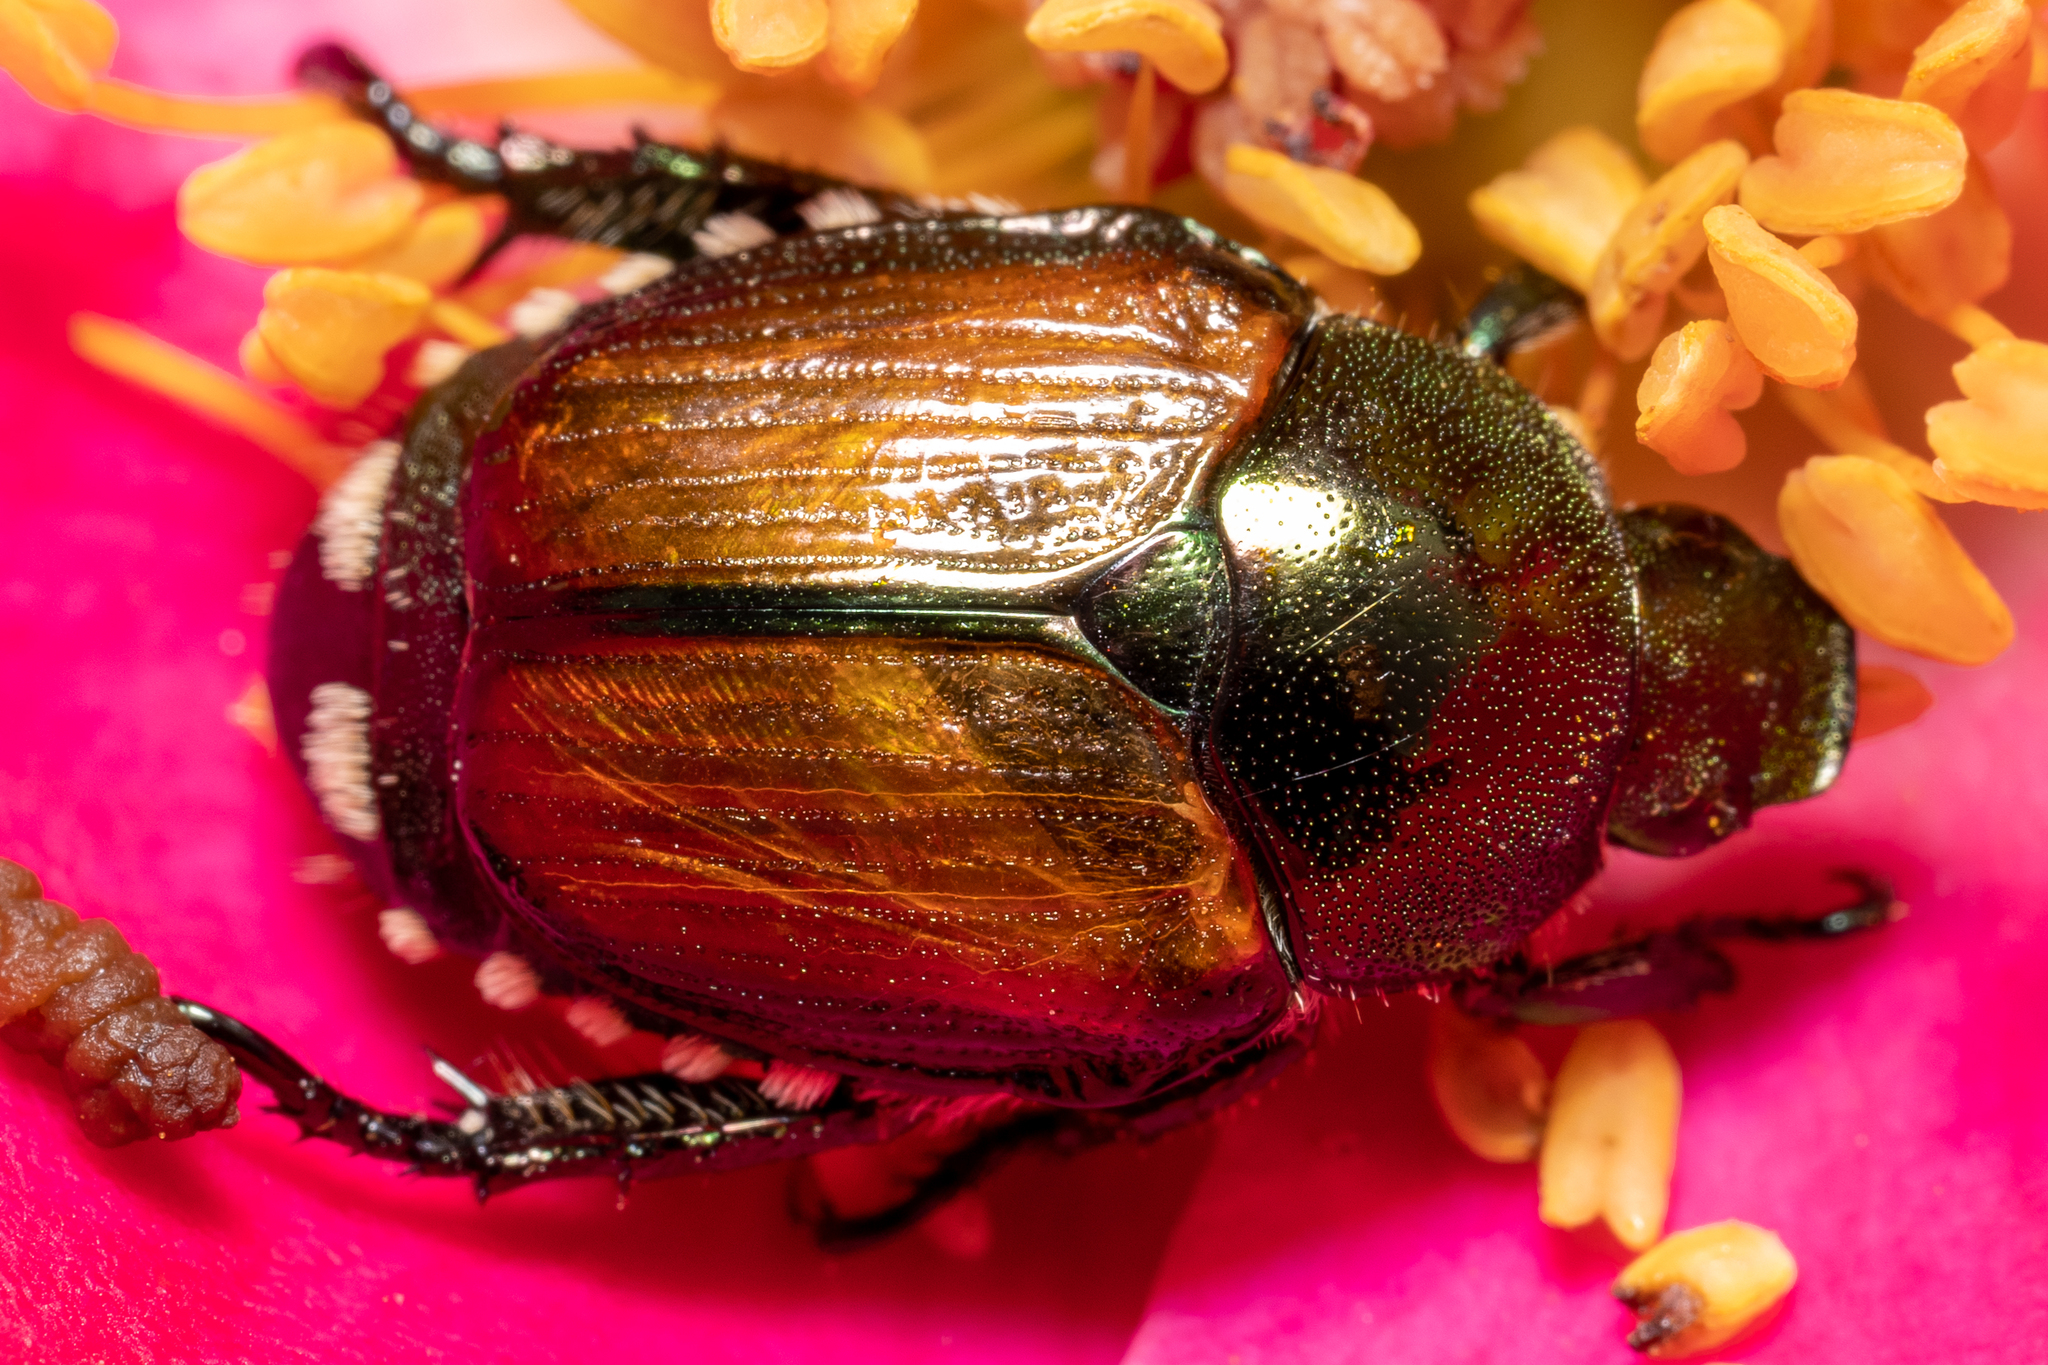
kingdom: Animalia
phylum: Arthropoda
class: Insecta
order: Coleoptera
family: Scarabaeidae
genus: Popillia
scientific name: Popillia japonica
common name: Japanese beetle
